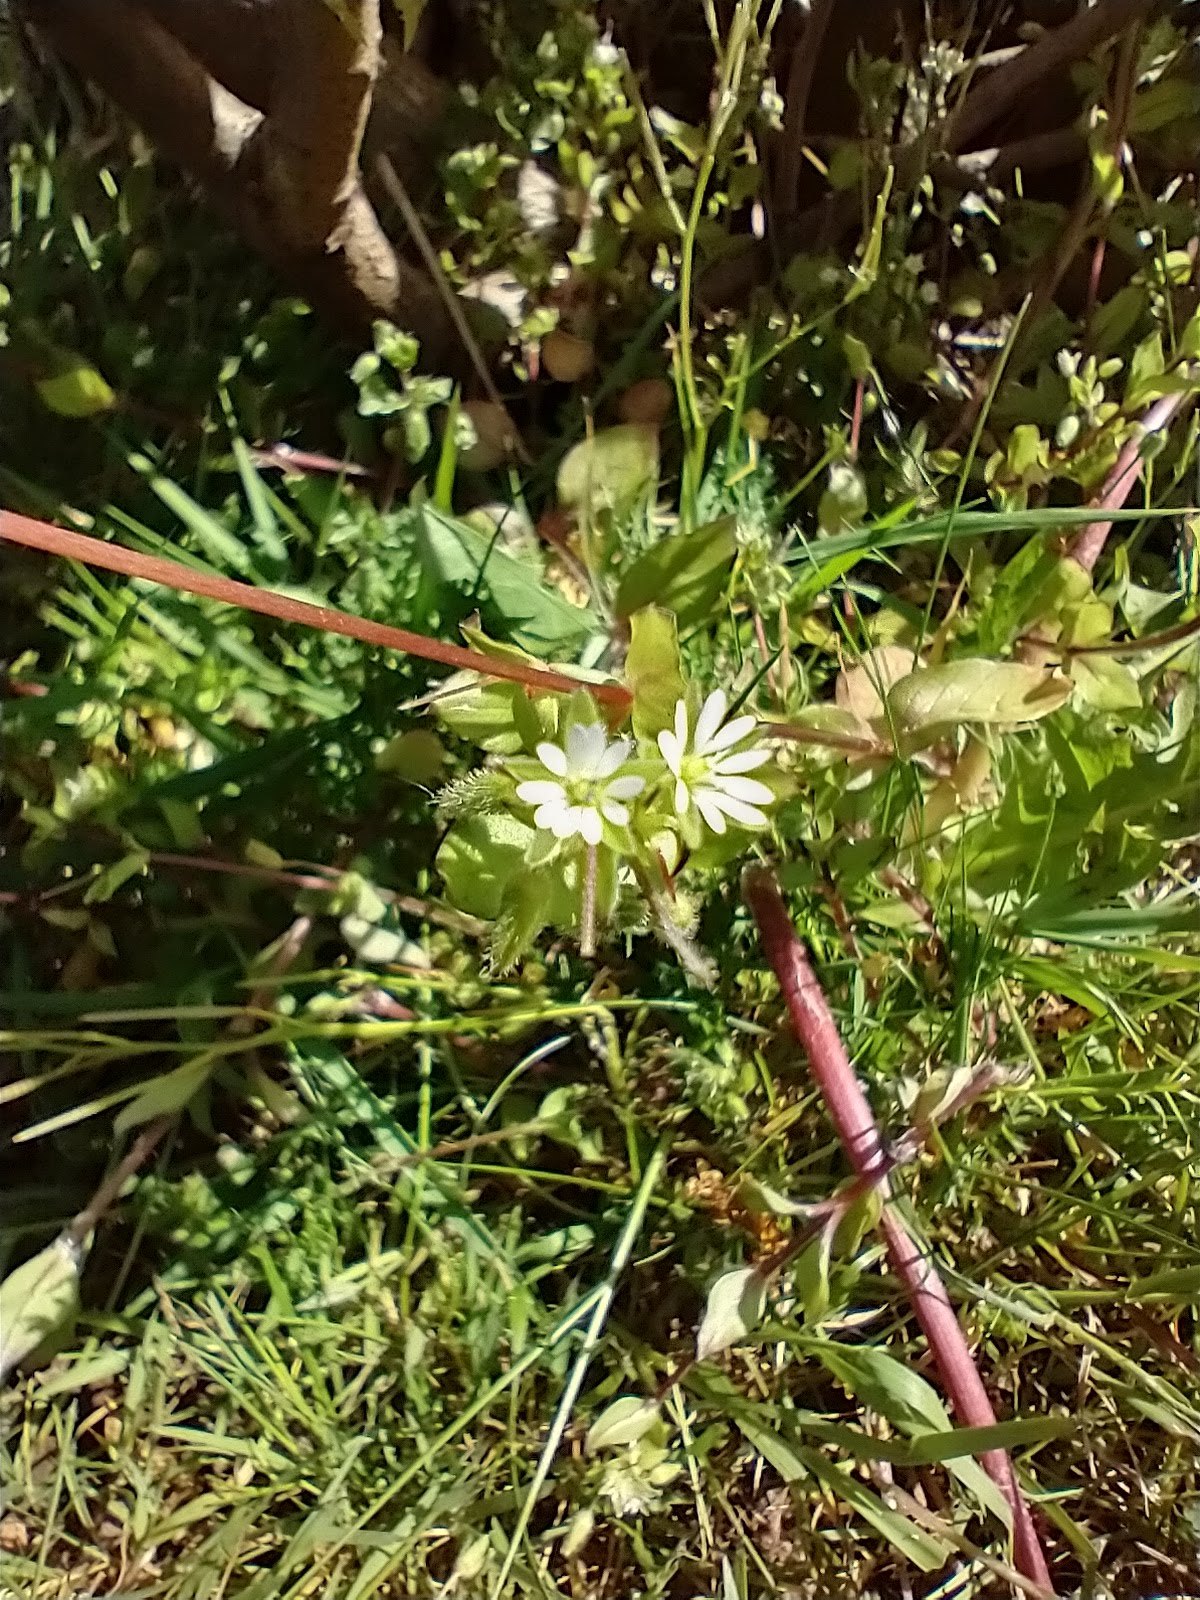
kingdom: Plantae
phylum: Tracheophyta
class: Magnoliopsida
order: Caryophyllales
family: Caryophyllaceae
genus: Stellaria
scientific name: Stellaria media
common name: Common chickweed
